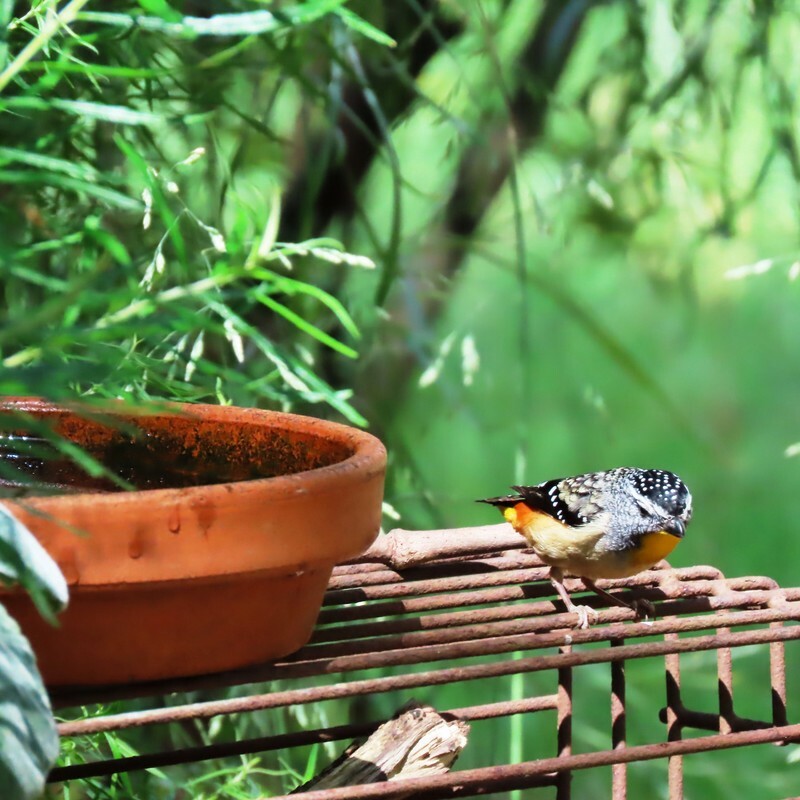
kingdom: Animalia
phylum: Chordata
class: Aves
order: Passeriformes
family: Pardalotidae
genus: Pardalotus
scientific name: Pardalotus punctatus
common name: Spotted pardalote
